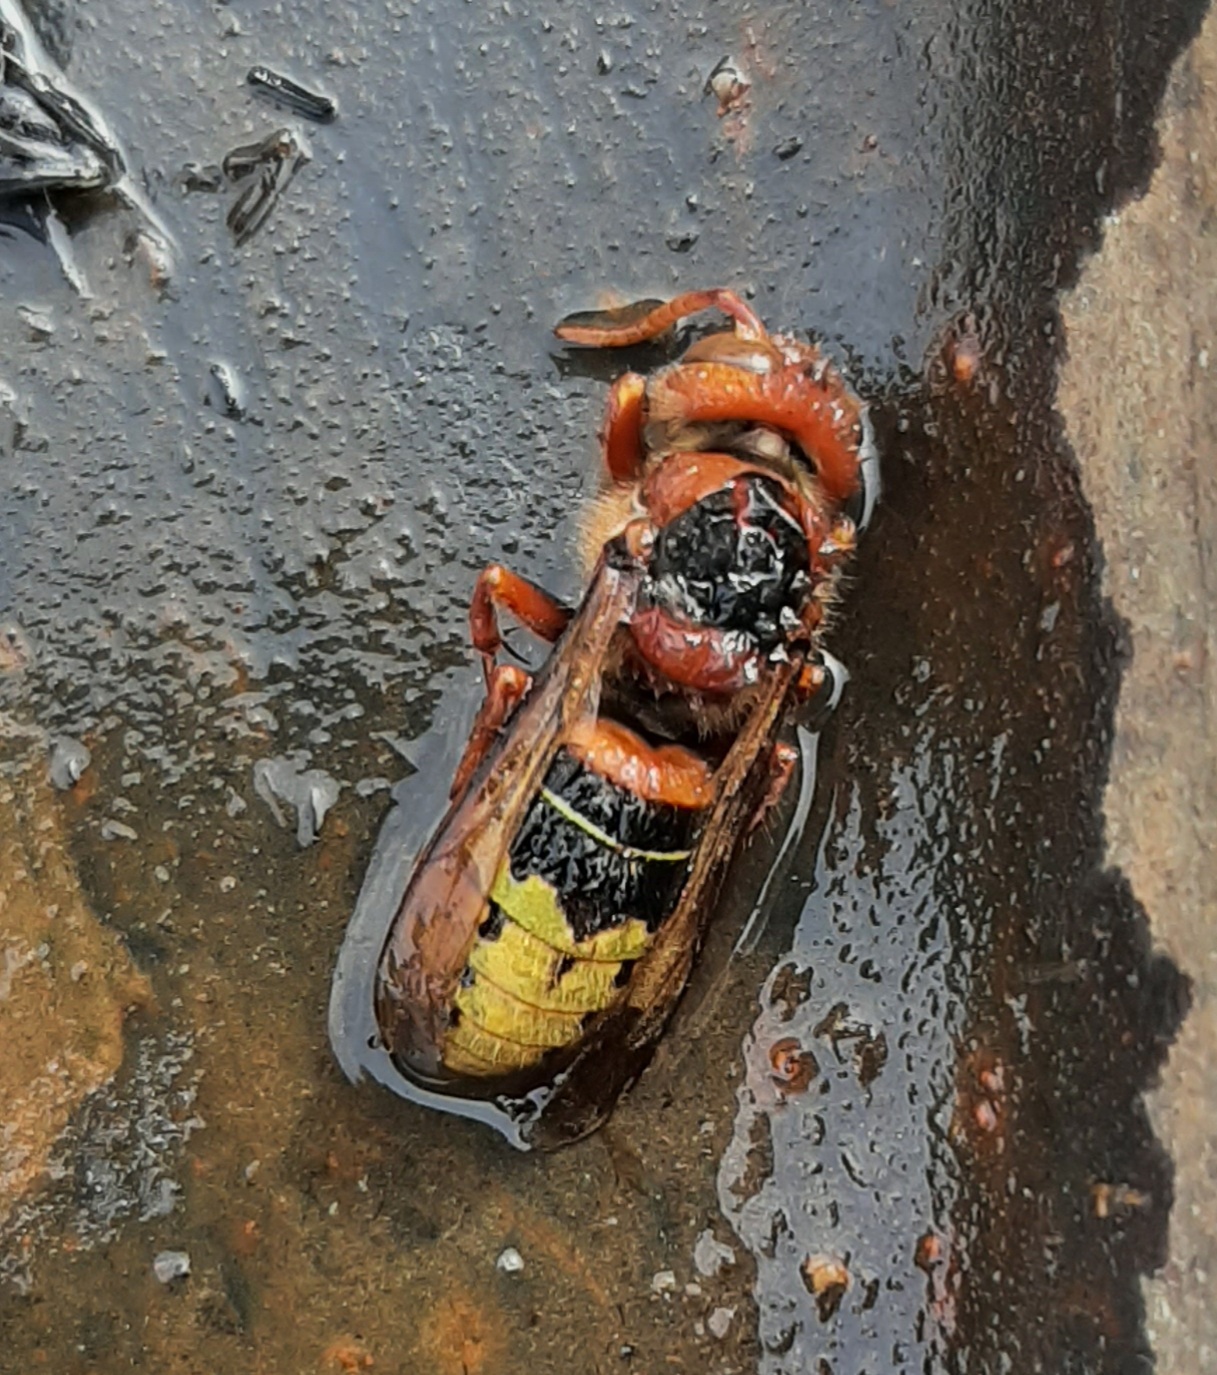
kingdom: Animalia
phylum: Arthropoda
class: Insecta
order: Hymenoptera
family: Vespidae
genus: Vespa
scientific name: Vespa crabro
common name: Hornet
